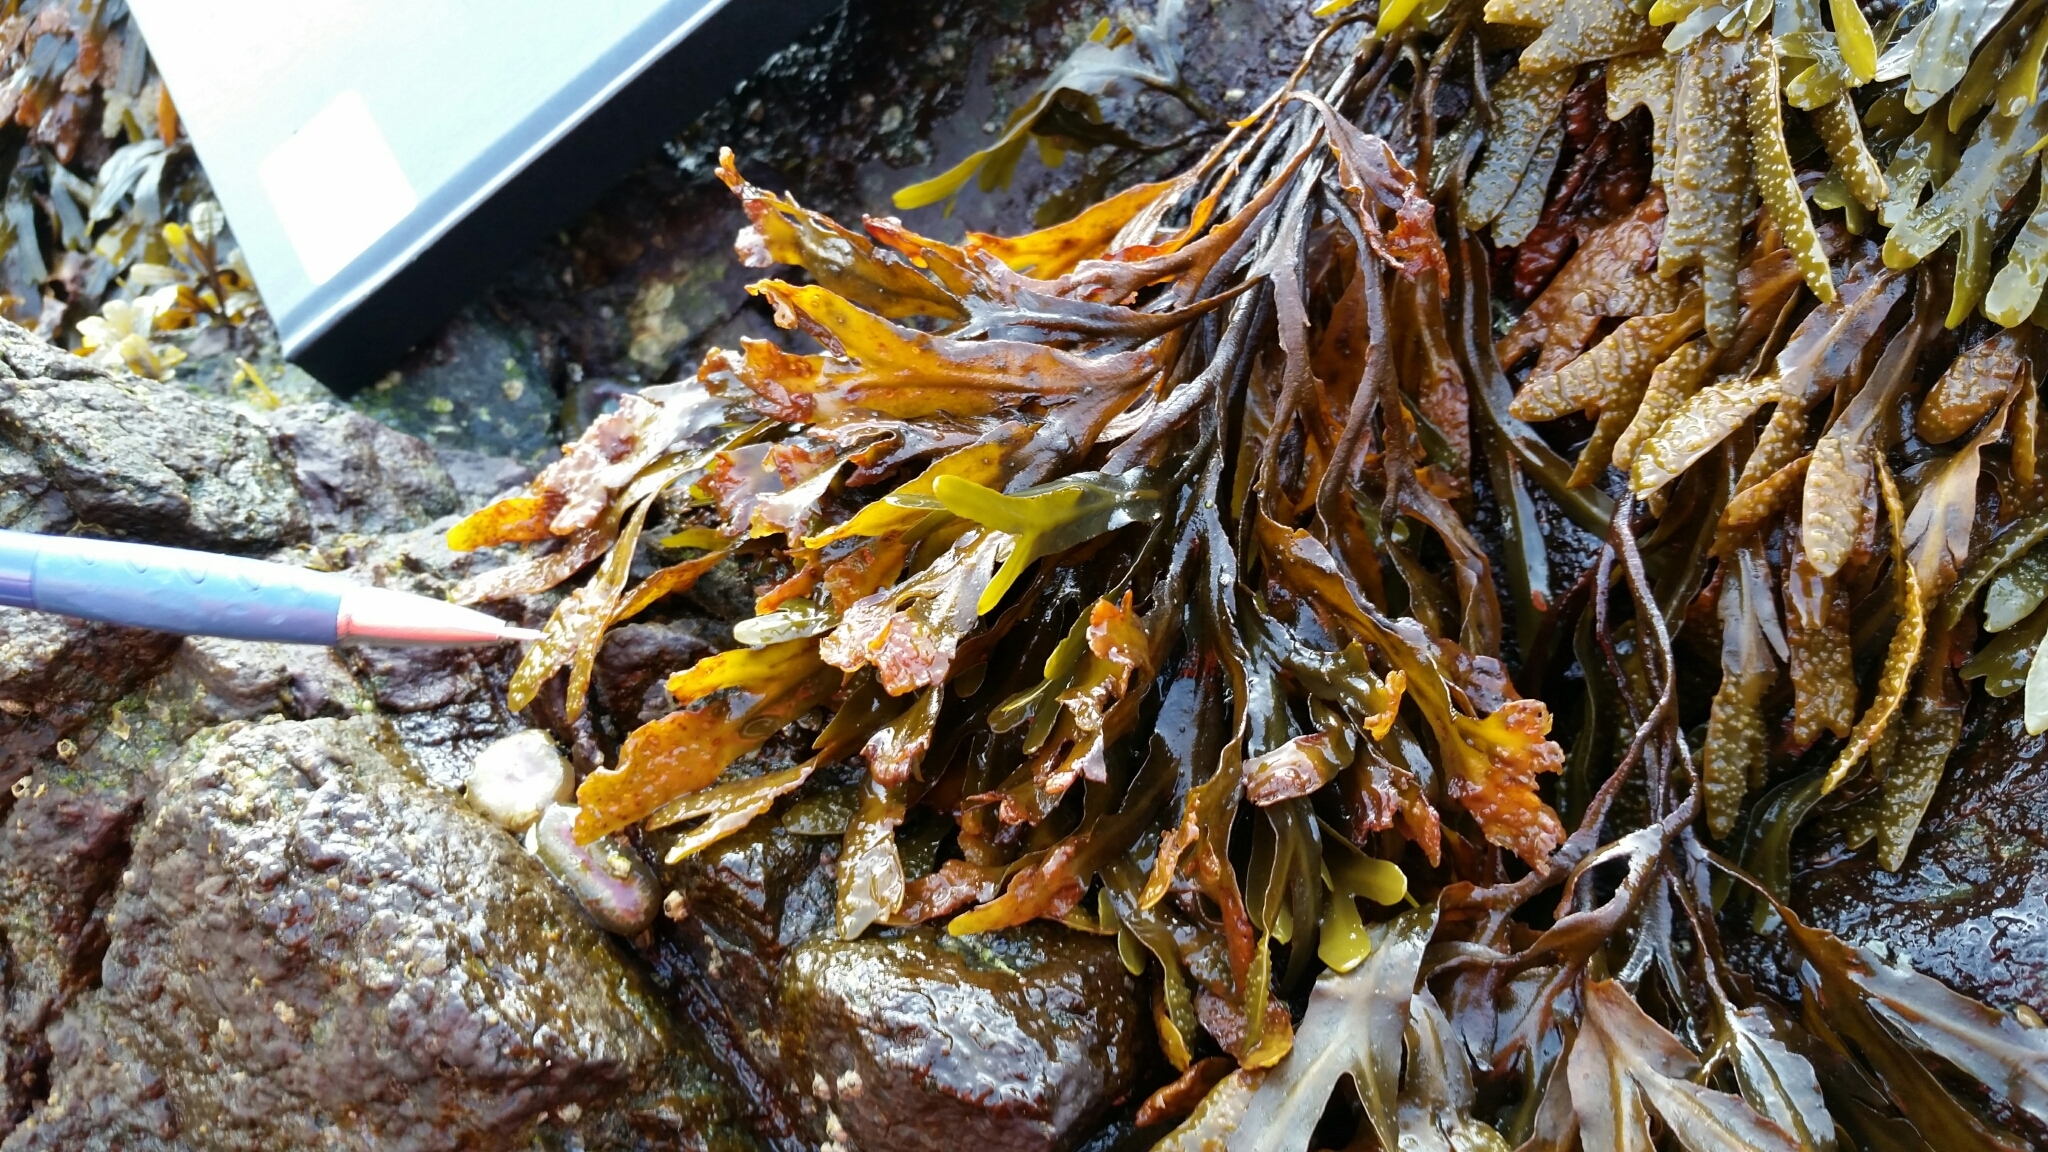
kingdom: Chromista
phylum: Ochrophyta
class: Phaeophyceae
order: Fucales
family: Fucaceae
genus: Fucus
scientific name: Fucus distichus
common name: Rockweed
